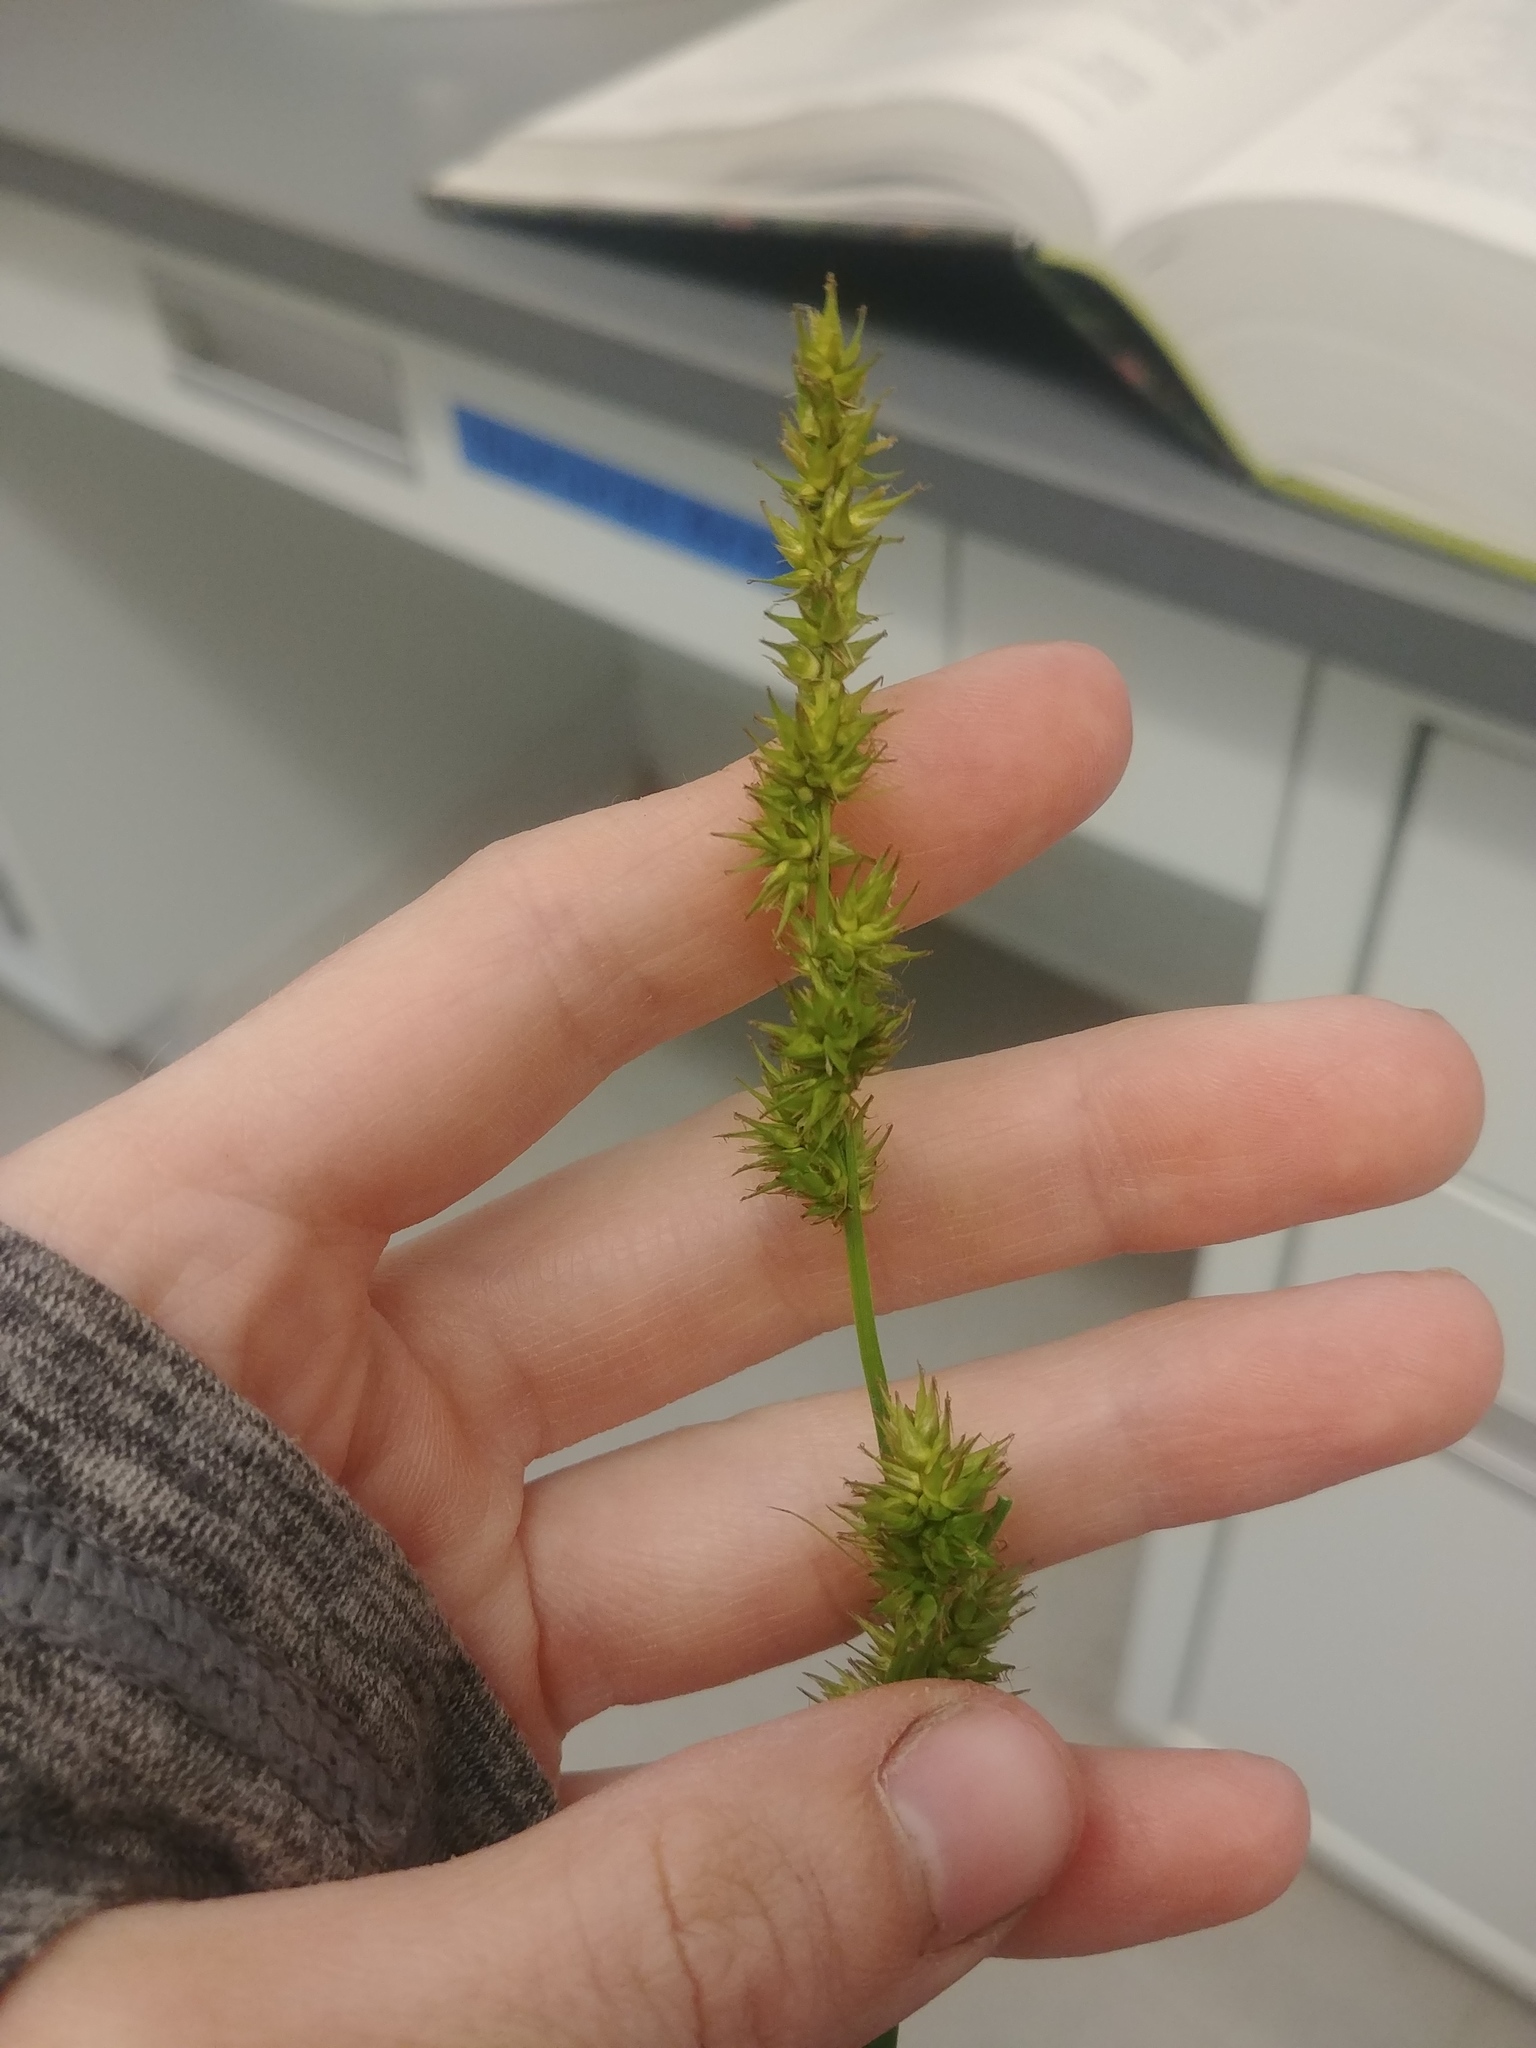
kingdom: Plantae
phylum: Tracheophyta
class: Liliopsida
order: Poales
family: Cyperaceae
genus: Carex
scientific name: Carex stipata
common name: Awl-fruited sedge
